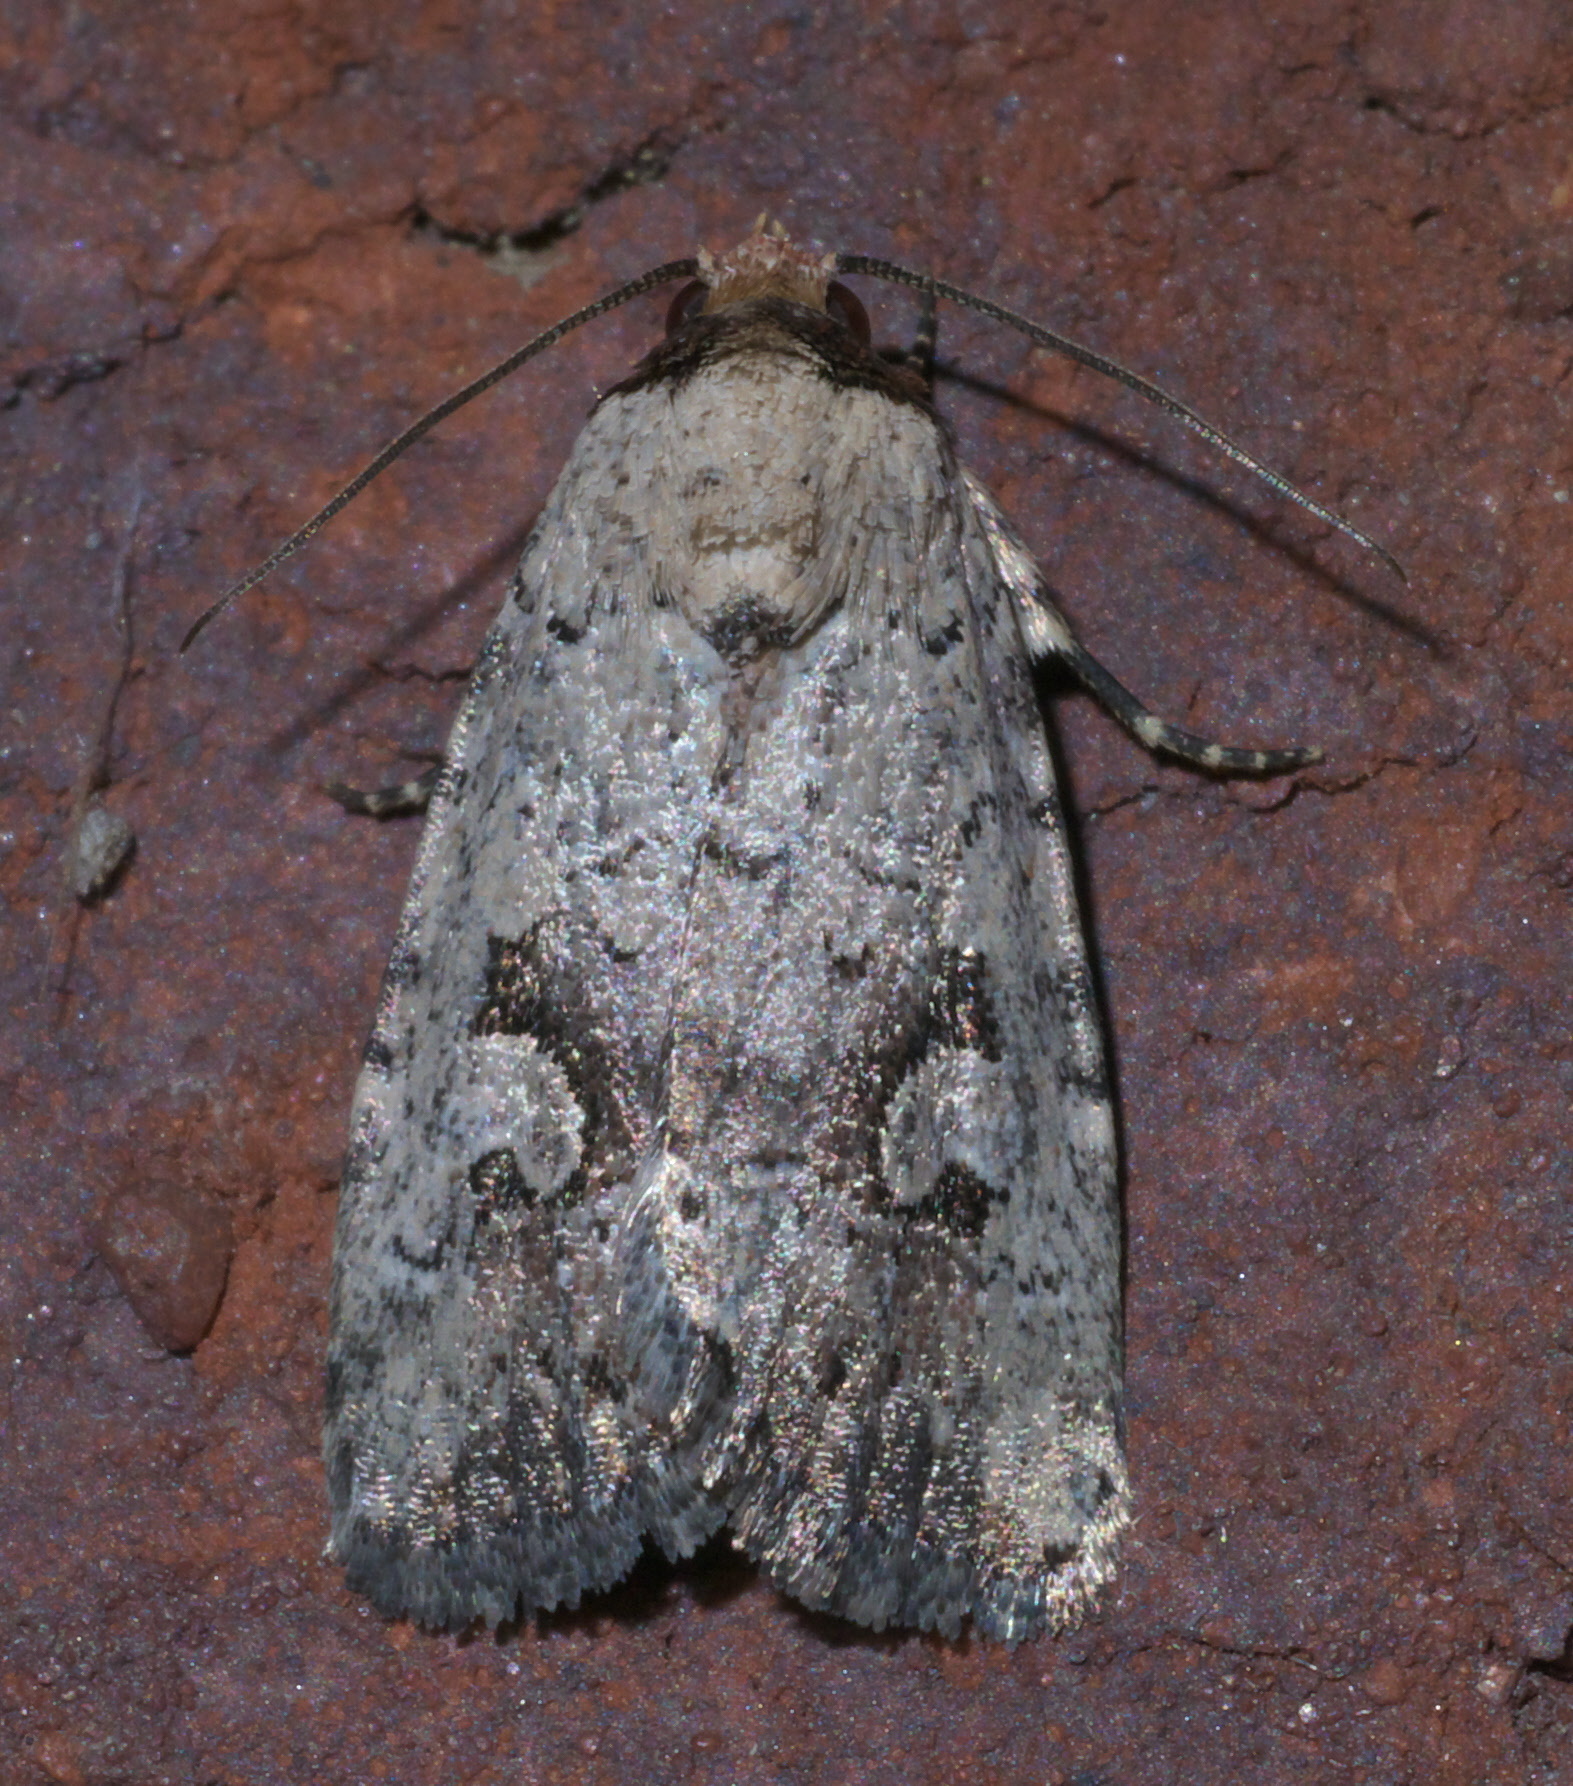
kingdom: Animalia
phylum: Arthropoda
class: Insecta
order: Lepidoptera
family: Noctuidae
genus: Elaphria
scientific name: Elaphria festivoides
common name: Festive midget
